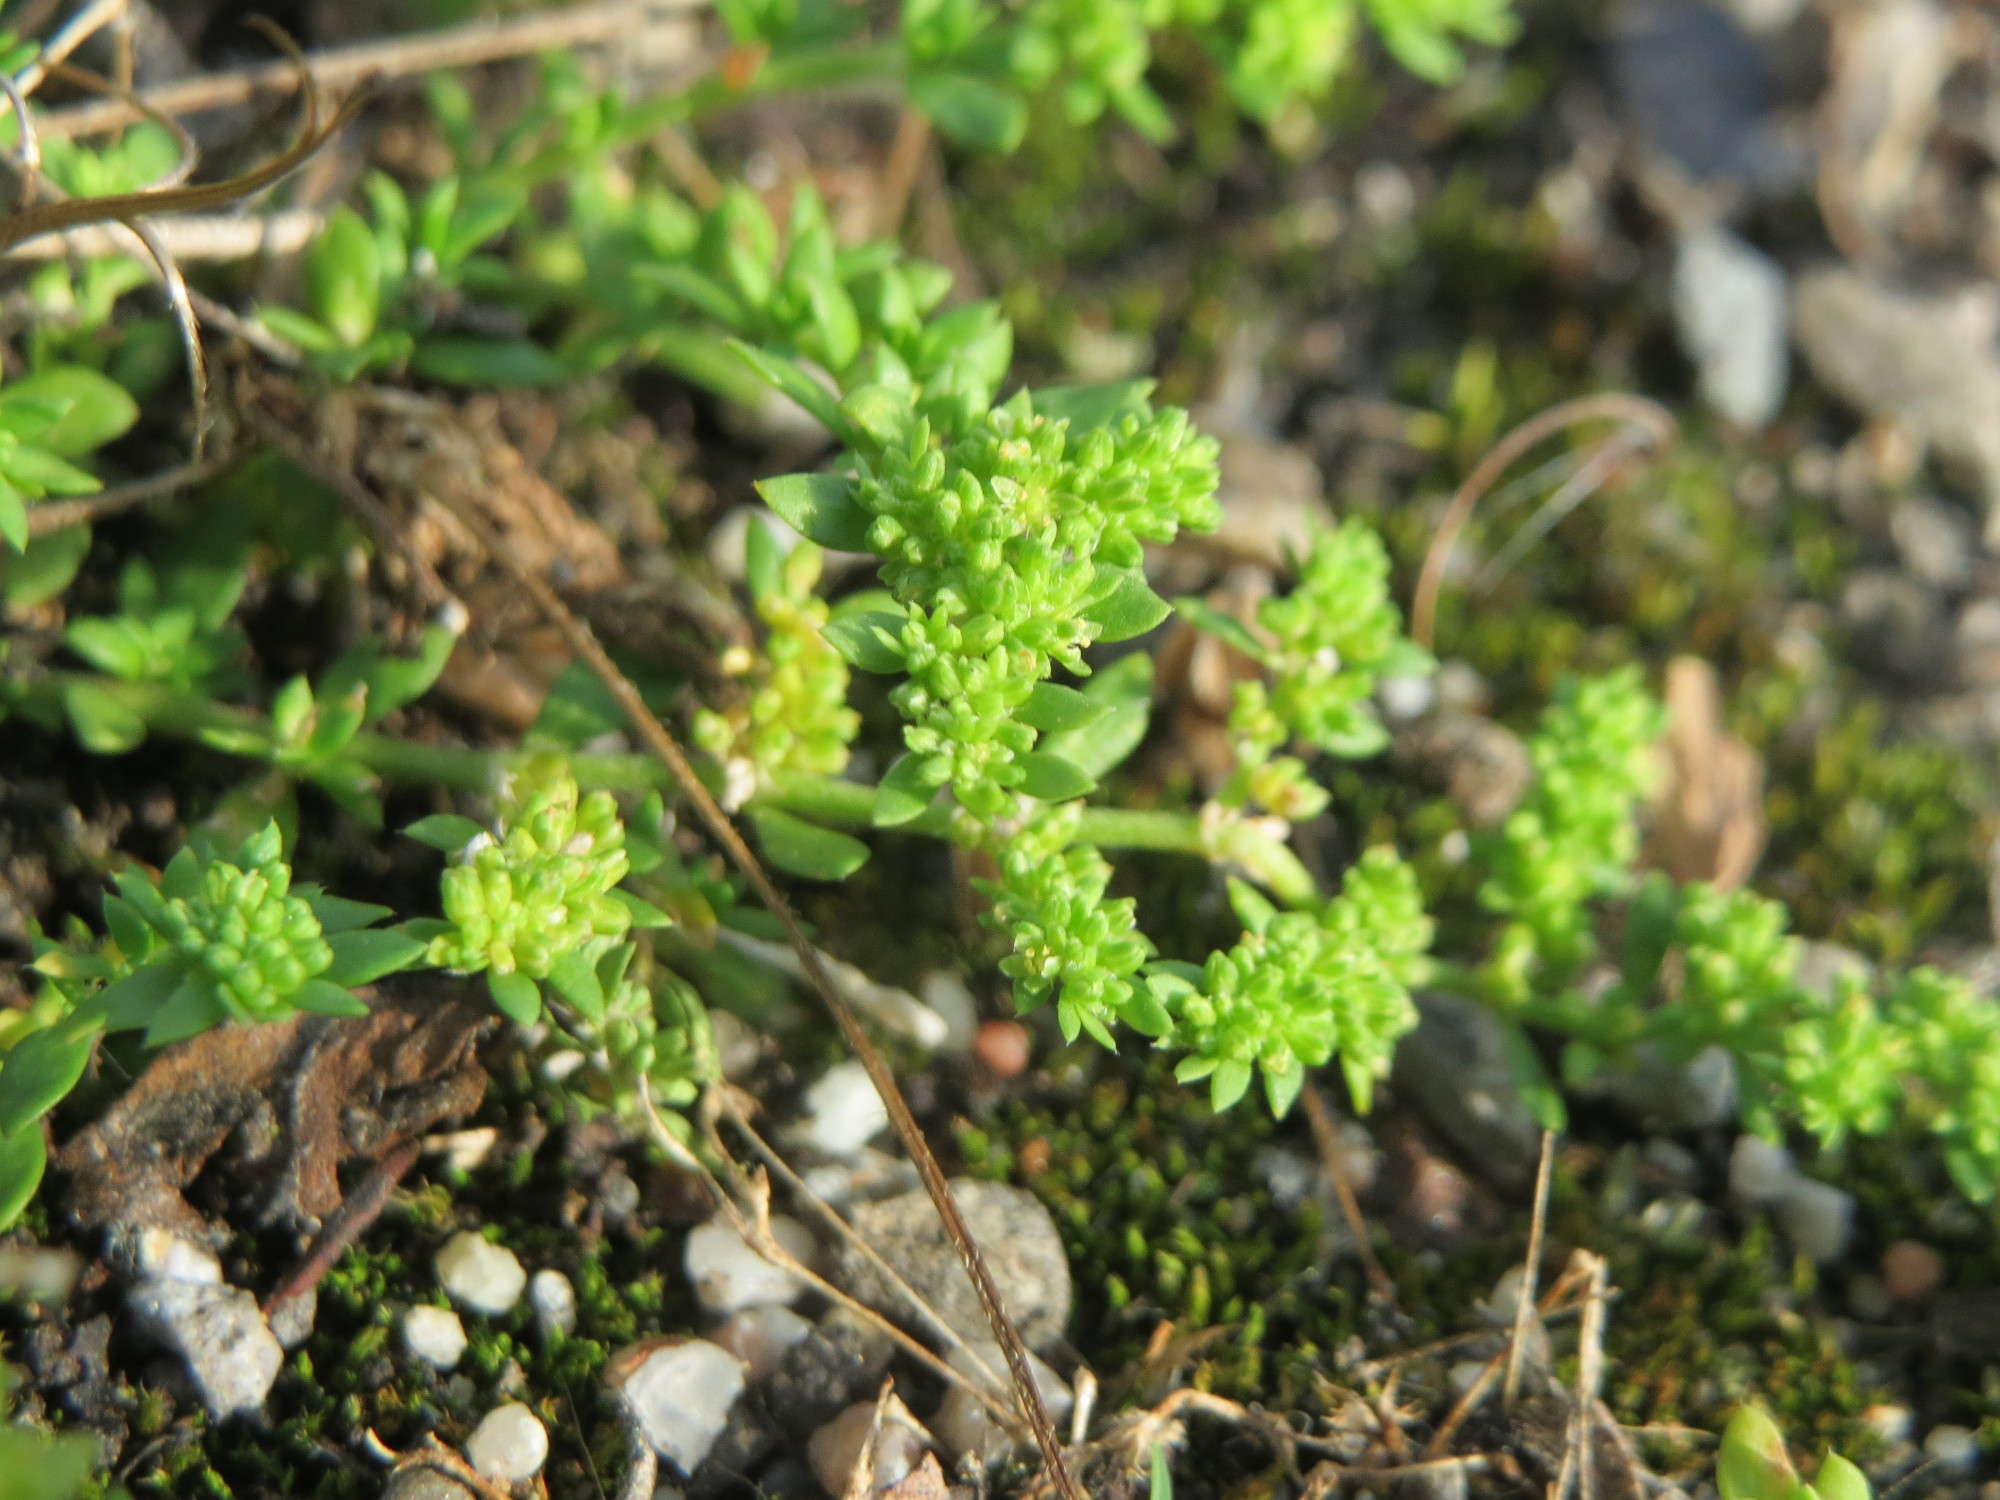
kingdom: Plantae
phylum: Tracheophyta
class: Magnoliopsida
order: Caryophyllales
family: Caryophyllaceae
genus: Herniaria
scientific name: Herniaria glabra
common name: Smooth rupturewort
